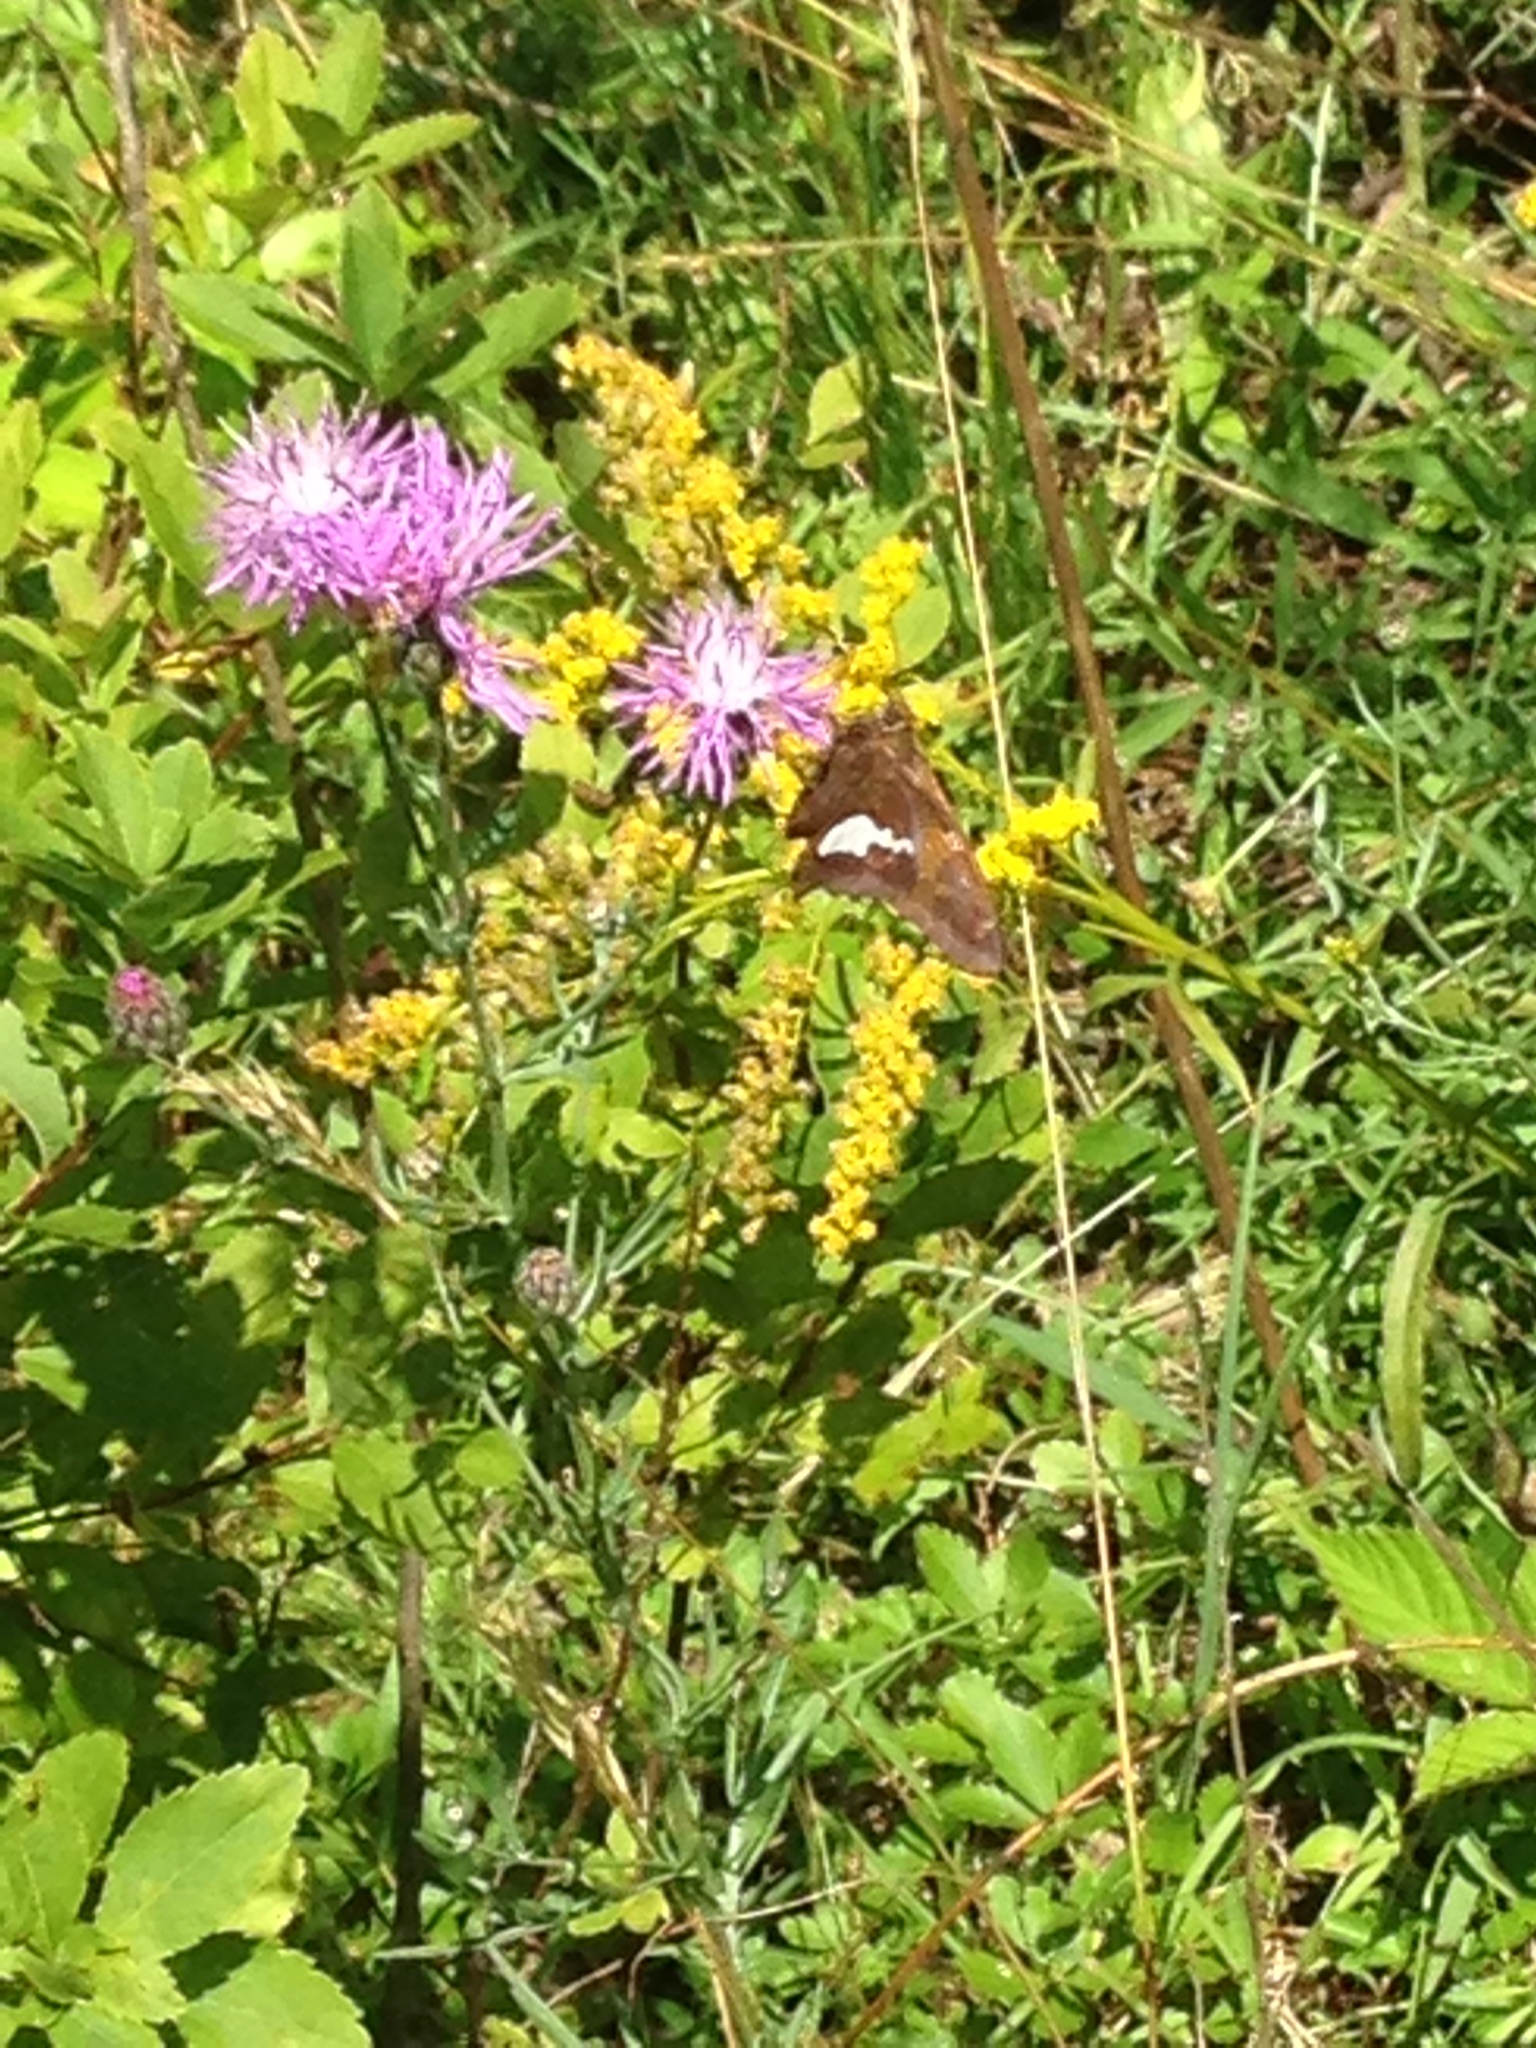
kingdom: Animalia
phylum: Arthropoda
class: Insecta
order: Lepidoptera
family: Hesperiidae
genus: Epargyreus
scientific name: Epargyreus clarus
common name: Silver-spotted skipper
